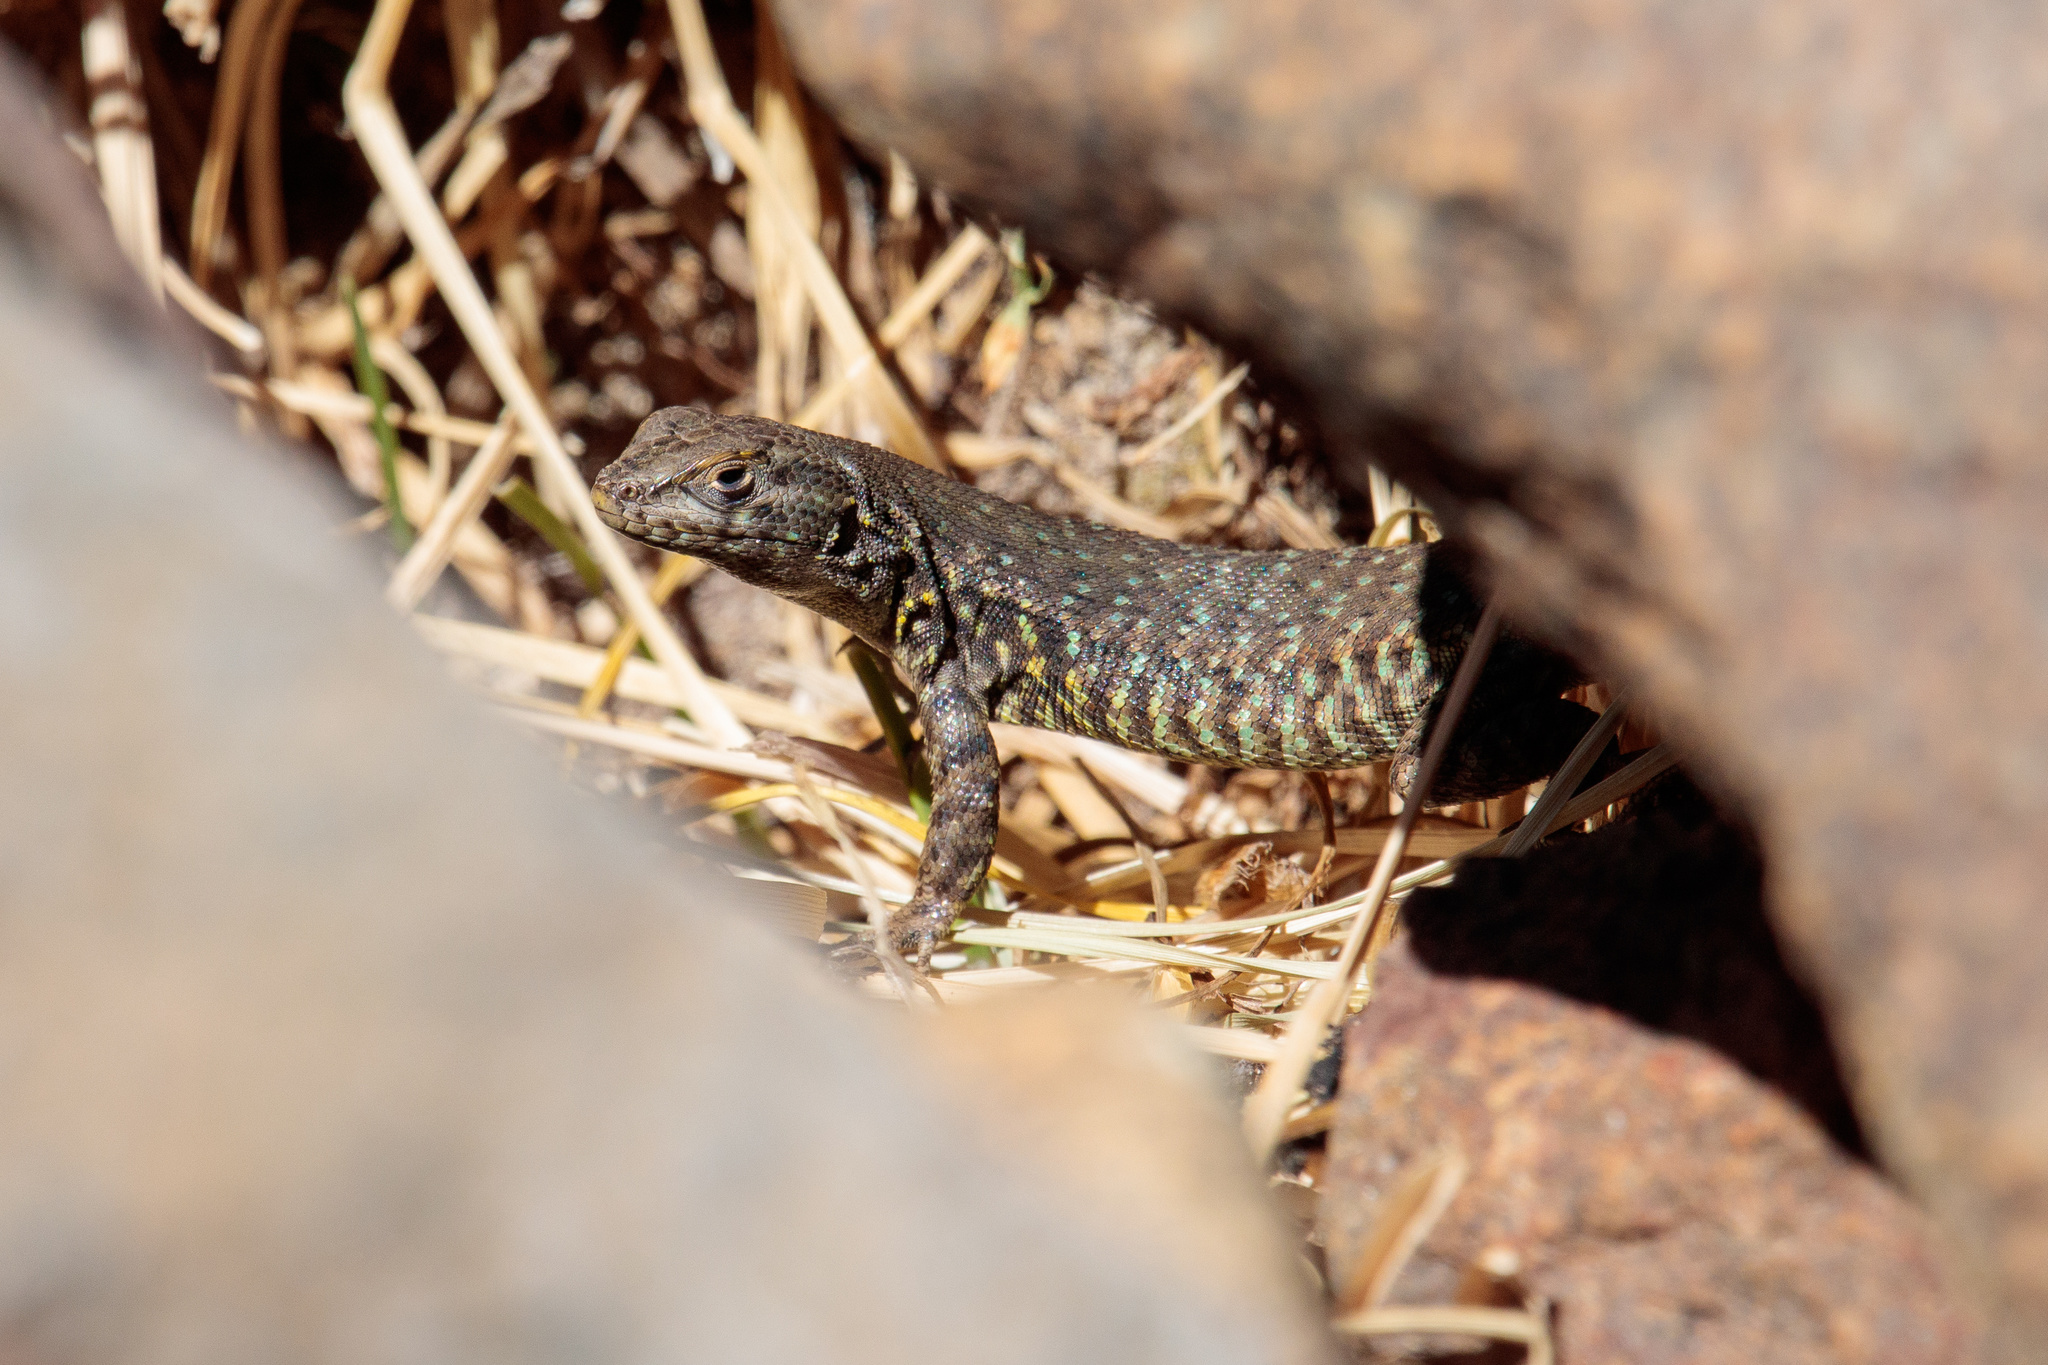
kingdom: Animalia
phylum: Chordata
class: Squamata
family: Liolaemidae
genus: Liolaemus
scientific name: Liolaemus nigroviridis
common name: Black-green tree iguana
